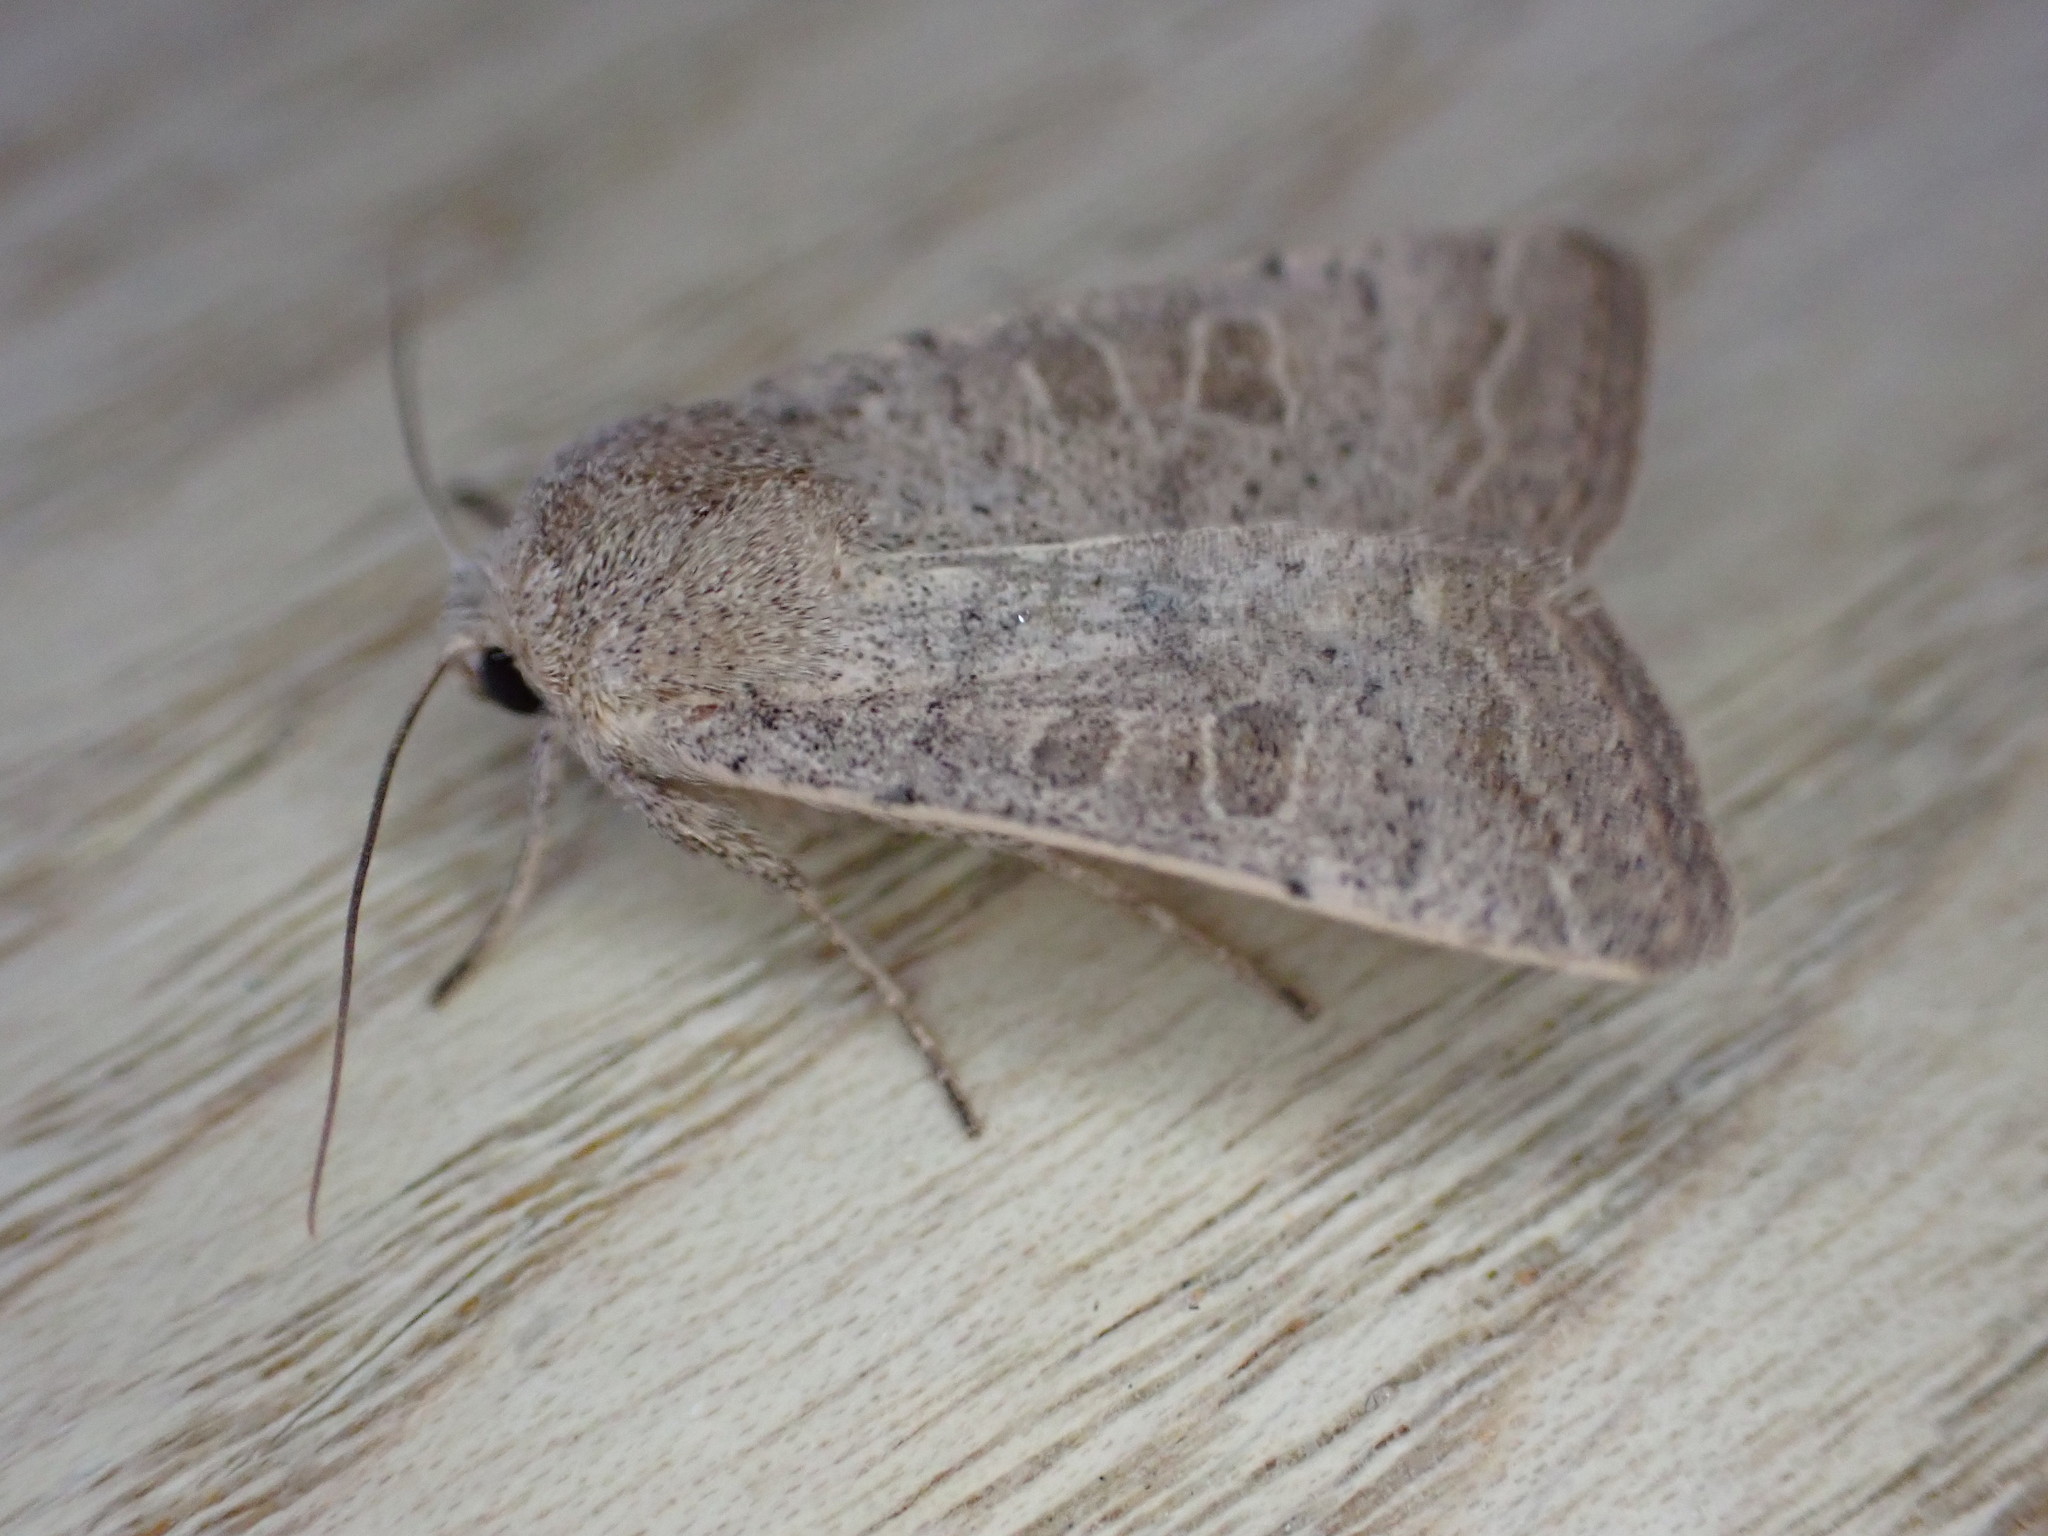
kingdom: Animalia
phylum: Arthropoda
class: Insecta
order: Lepidoptera
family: Noctuidae
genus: Hoplodrina
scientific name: Hoplodrina ambigua
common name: Vine's rustic
